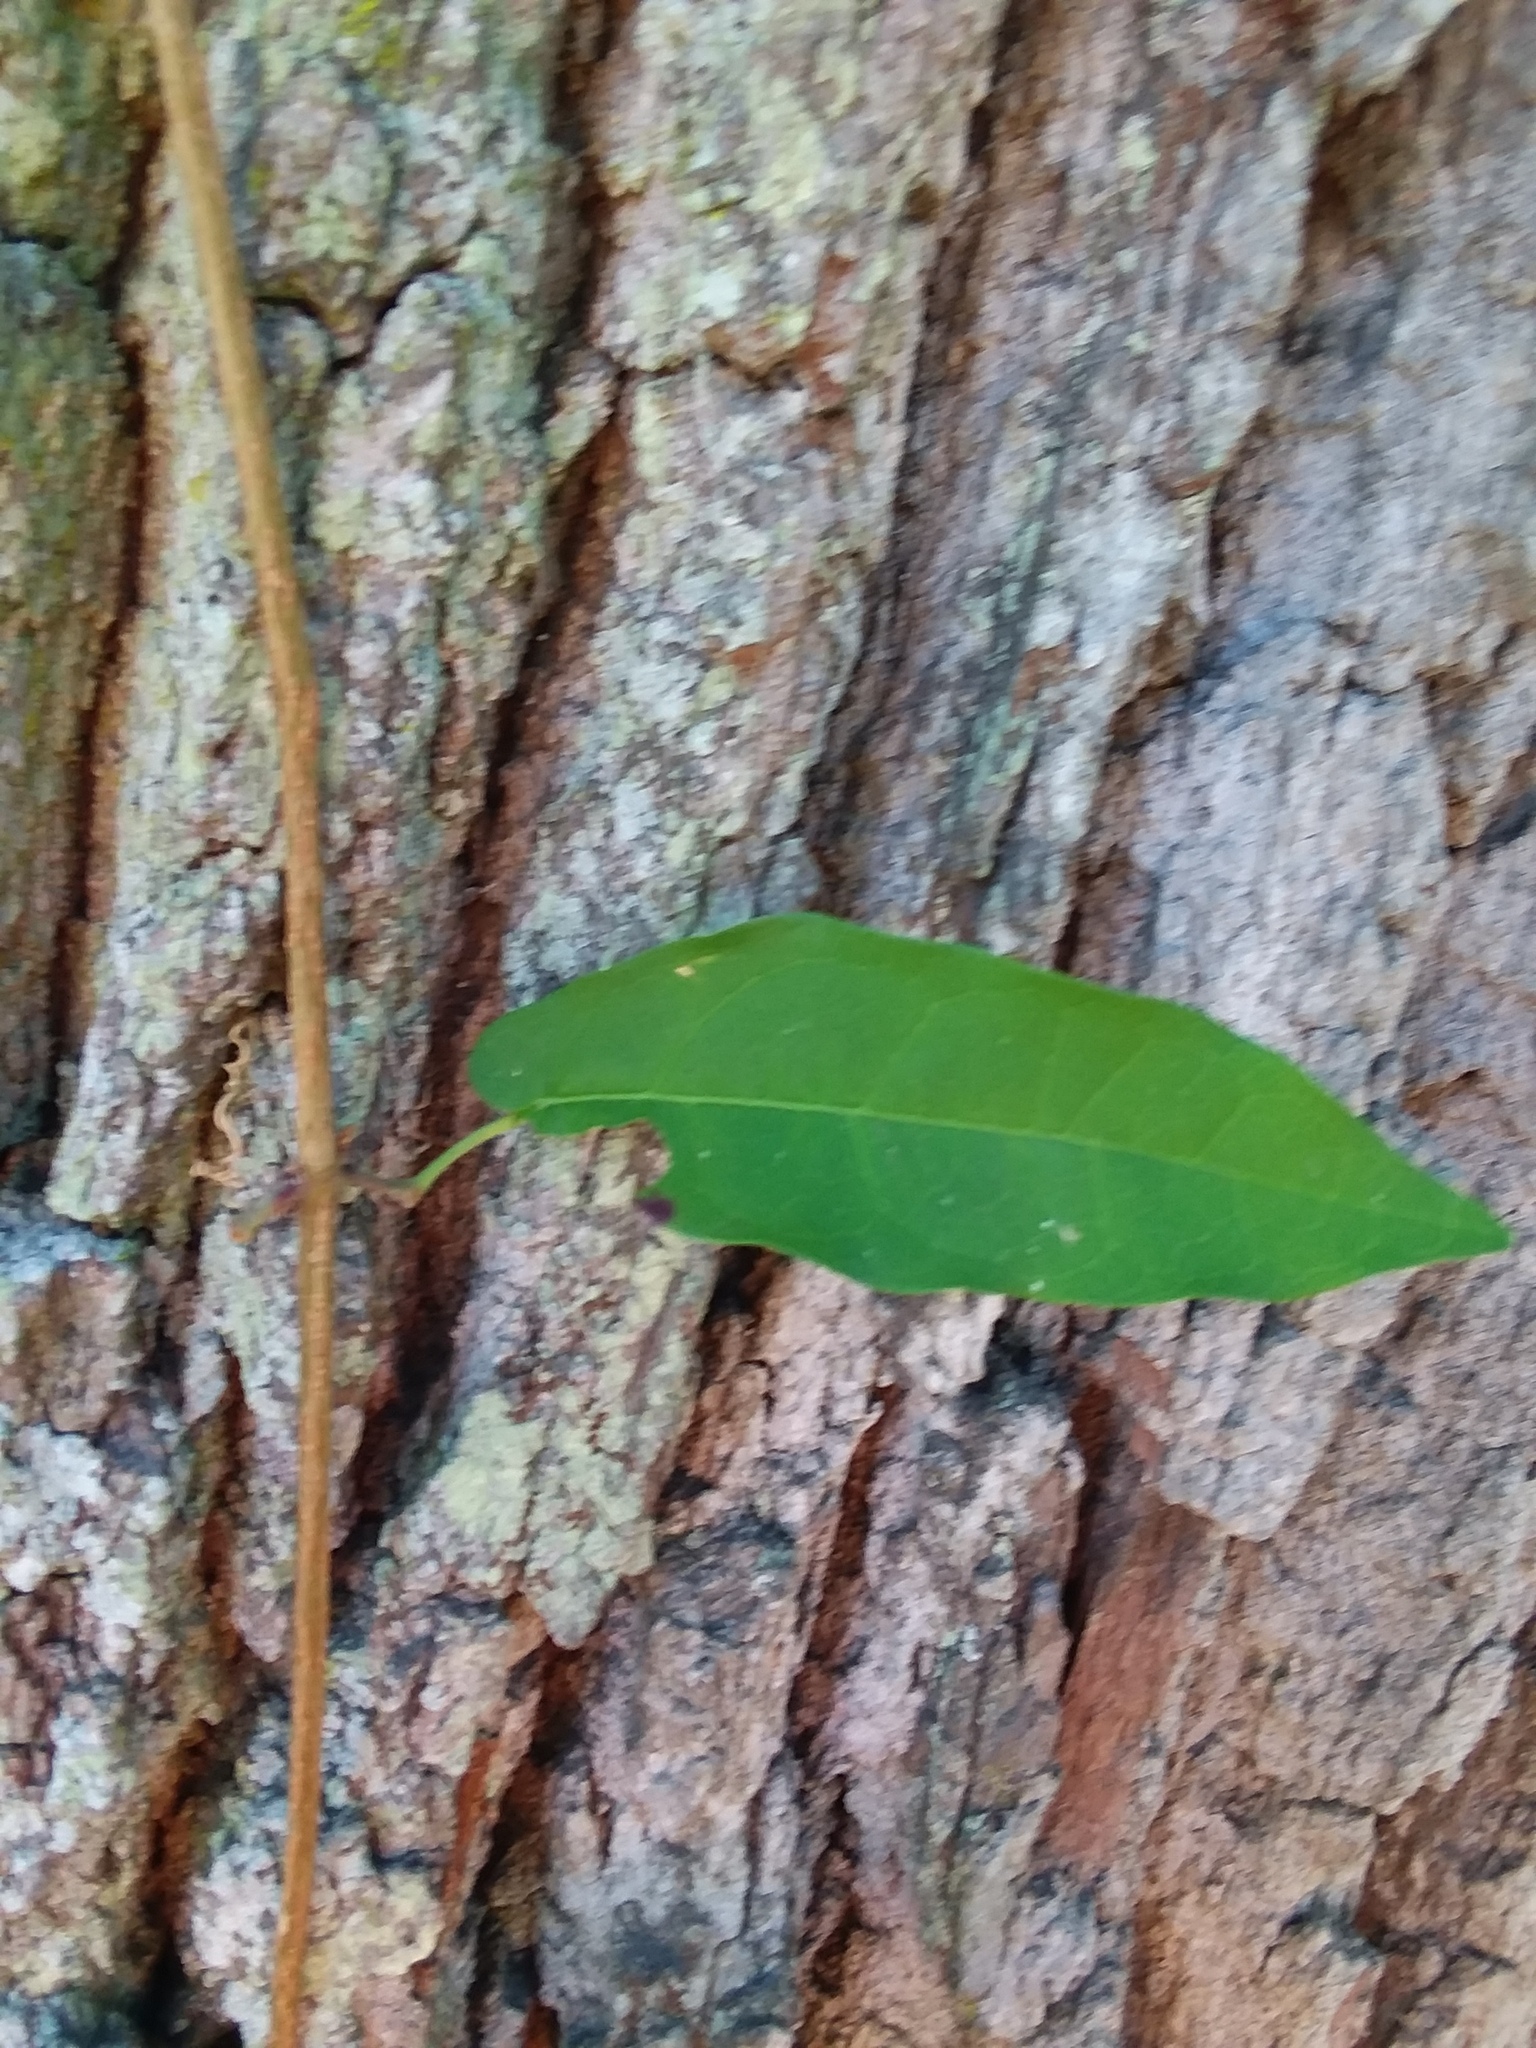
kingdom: Plantae
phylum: Tracheophyta
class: Magnoliopsida
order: Lamiales
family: Bignoniaceae
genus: Bignonia
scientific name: Bignonia capreolata
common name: Crossvine
